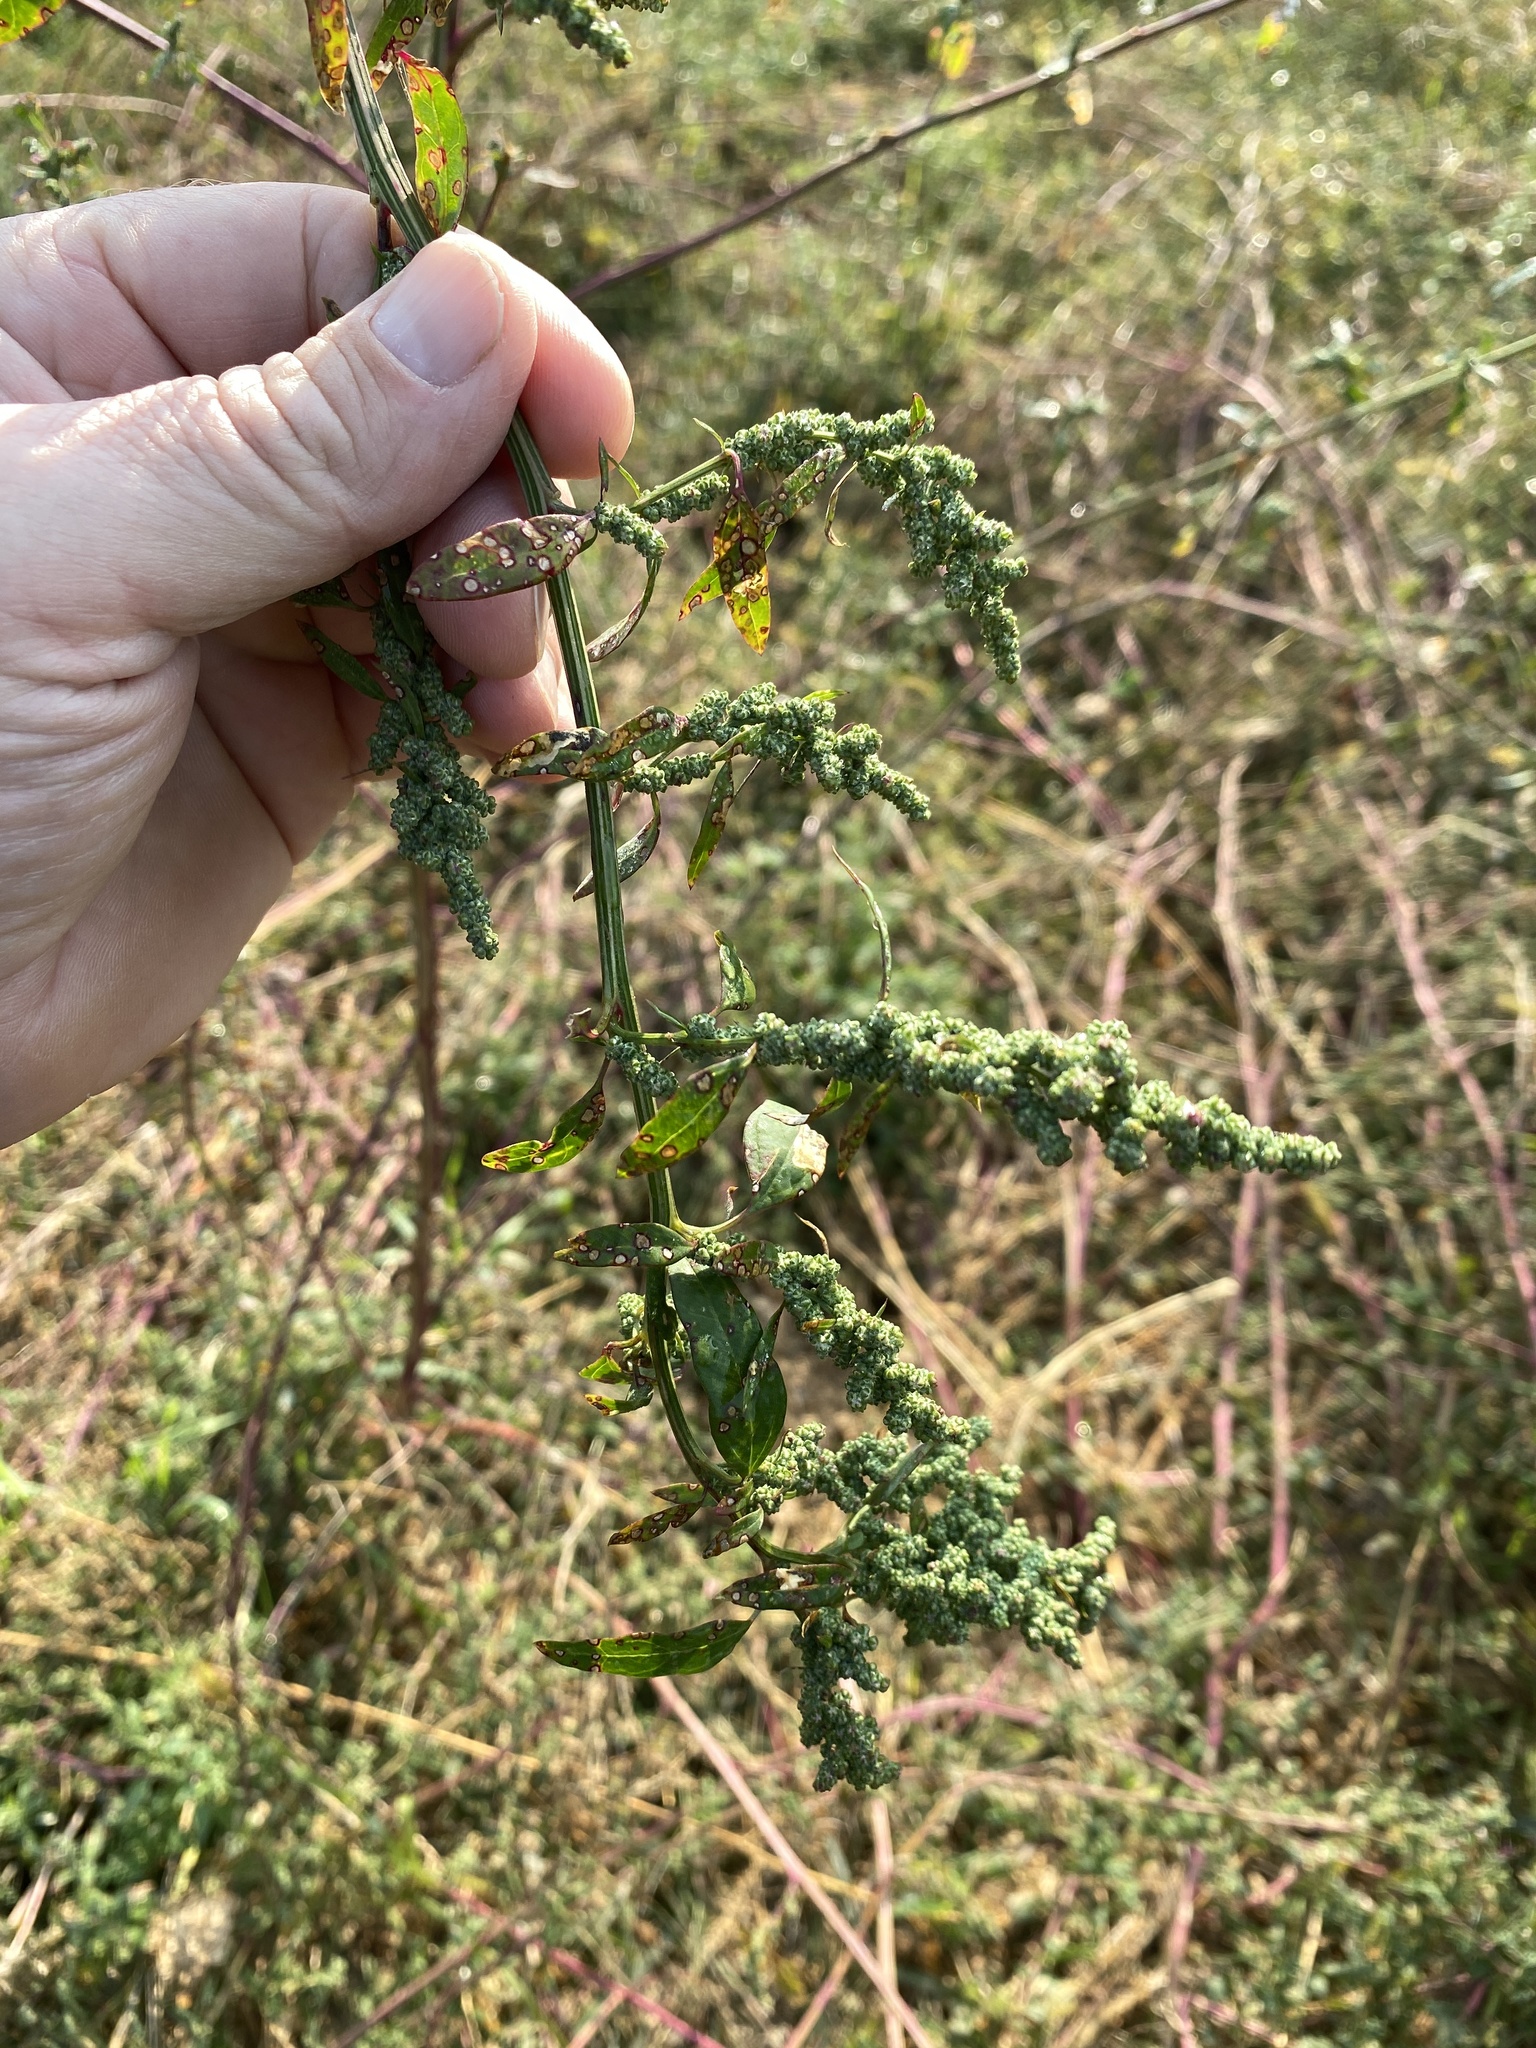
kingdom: Plantae
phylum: Tracheophyta
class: Magnoliopsida
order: Caryophyllales
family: Amaranthaceae
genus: Chenopodium
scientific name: Chenopodium album
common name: Fat-hen
